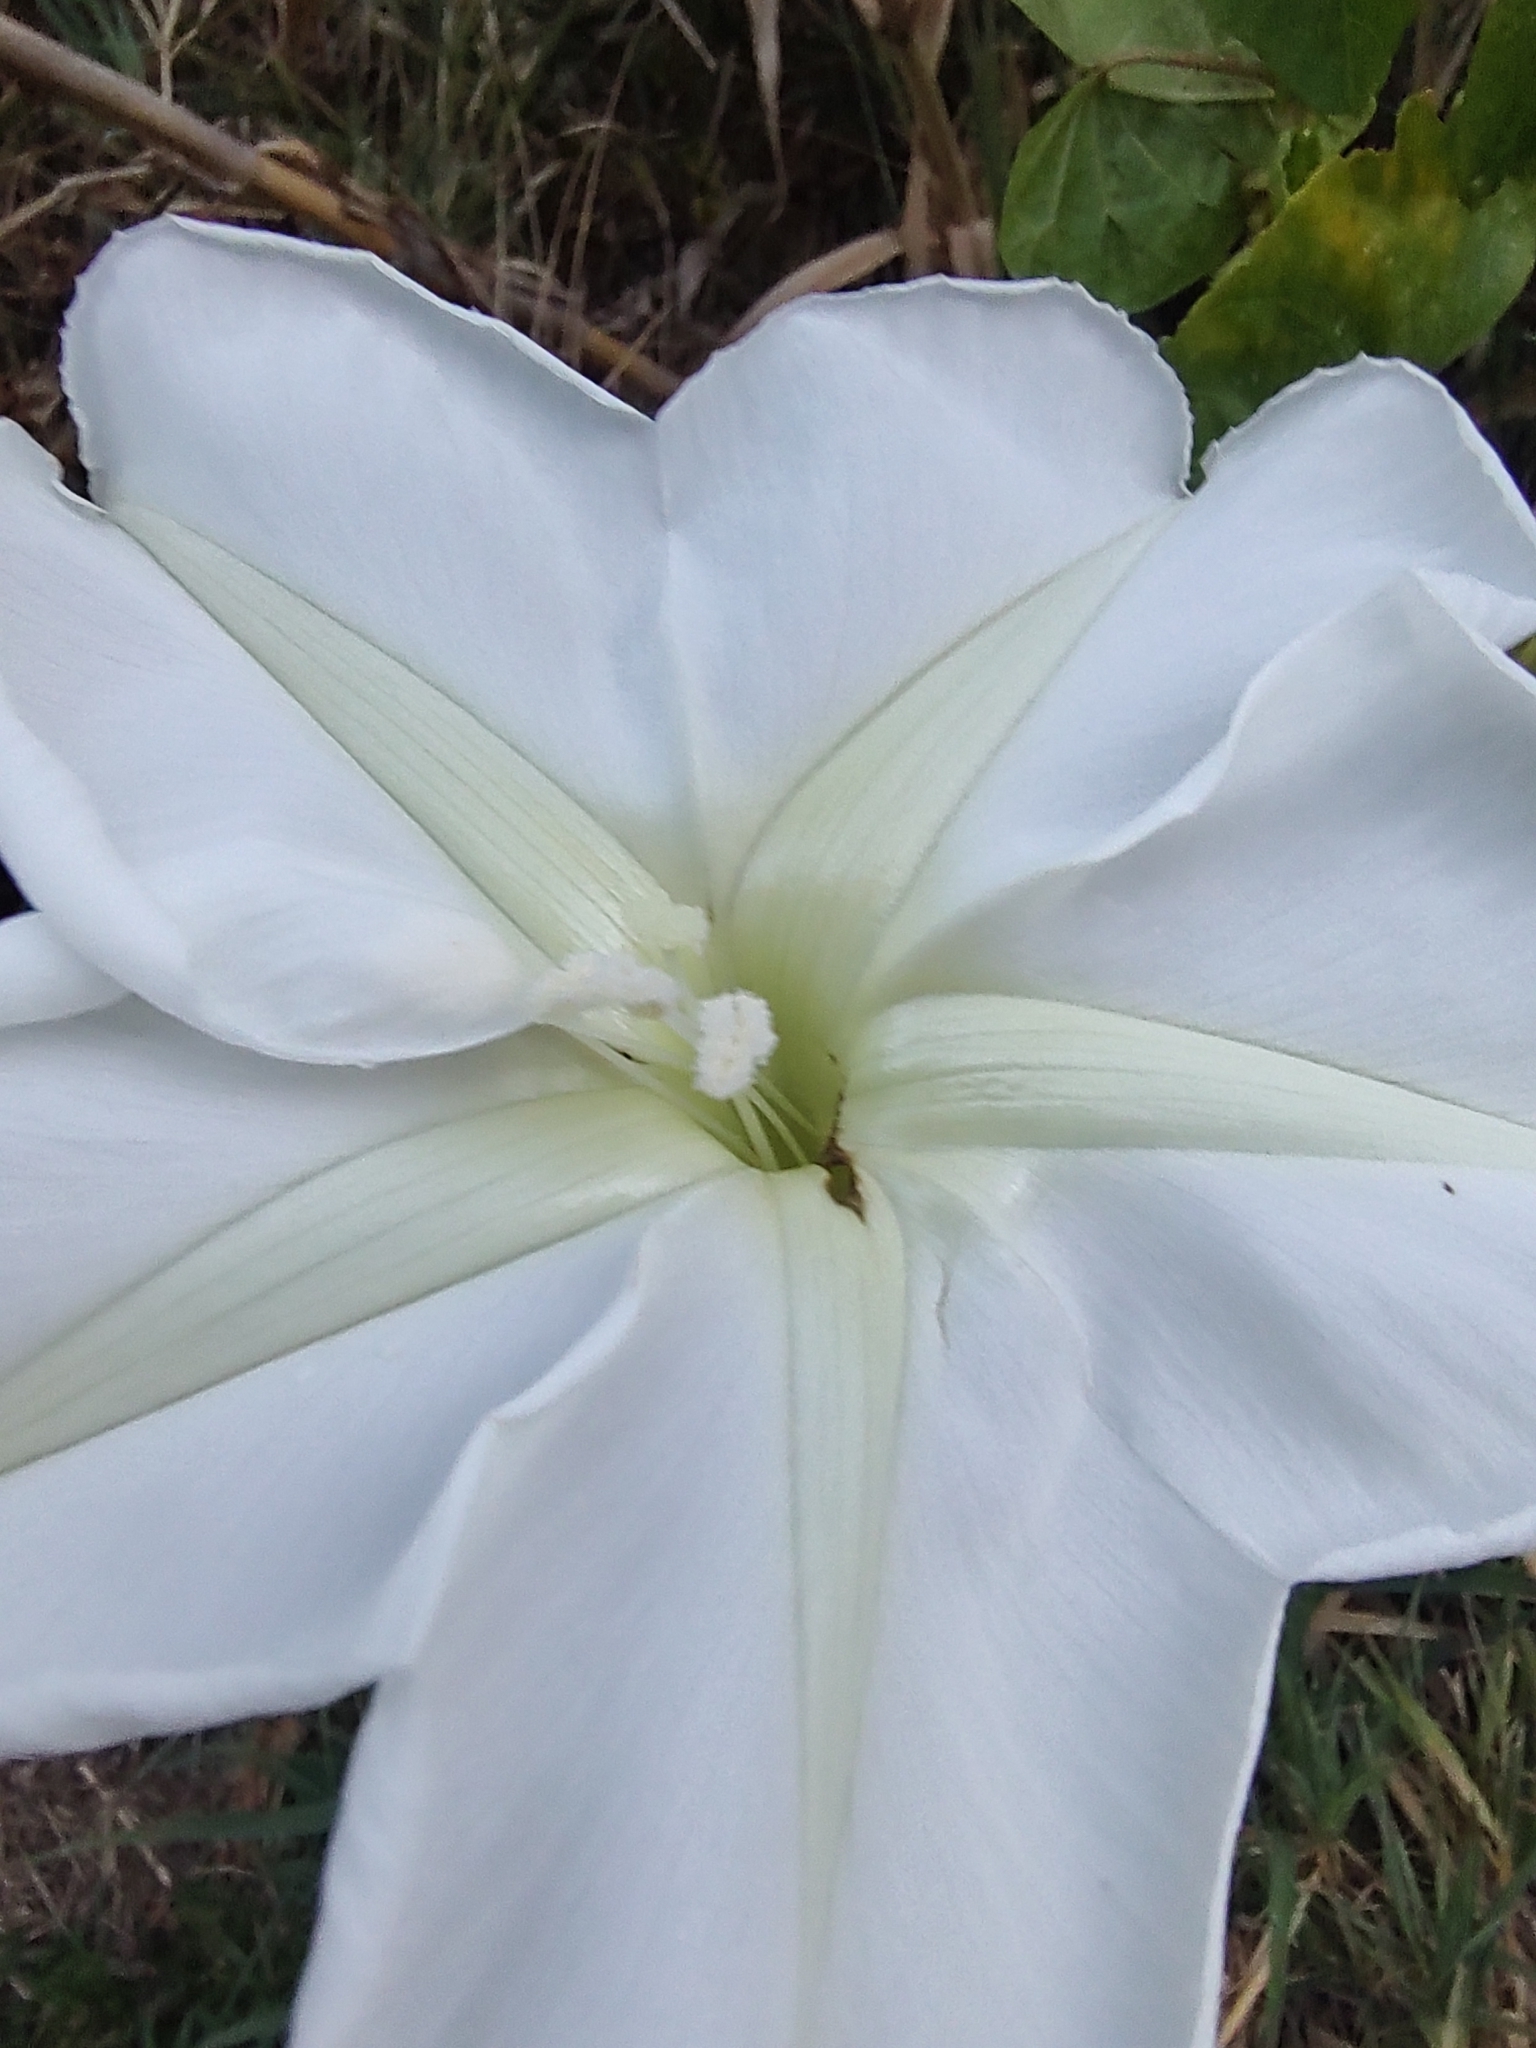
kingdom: Plantae
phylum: Tracheophyta
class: Magnoliopsida
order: Solanales
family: Convolvulaceae
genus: Ipomoea
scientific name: Ipomoea alba
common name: Moonflower
